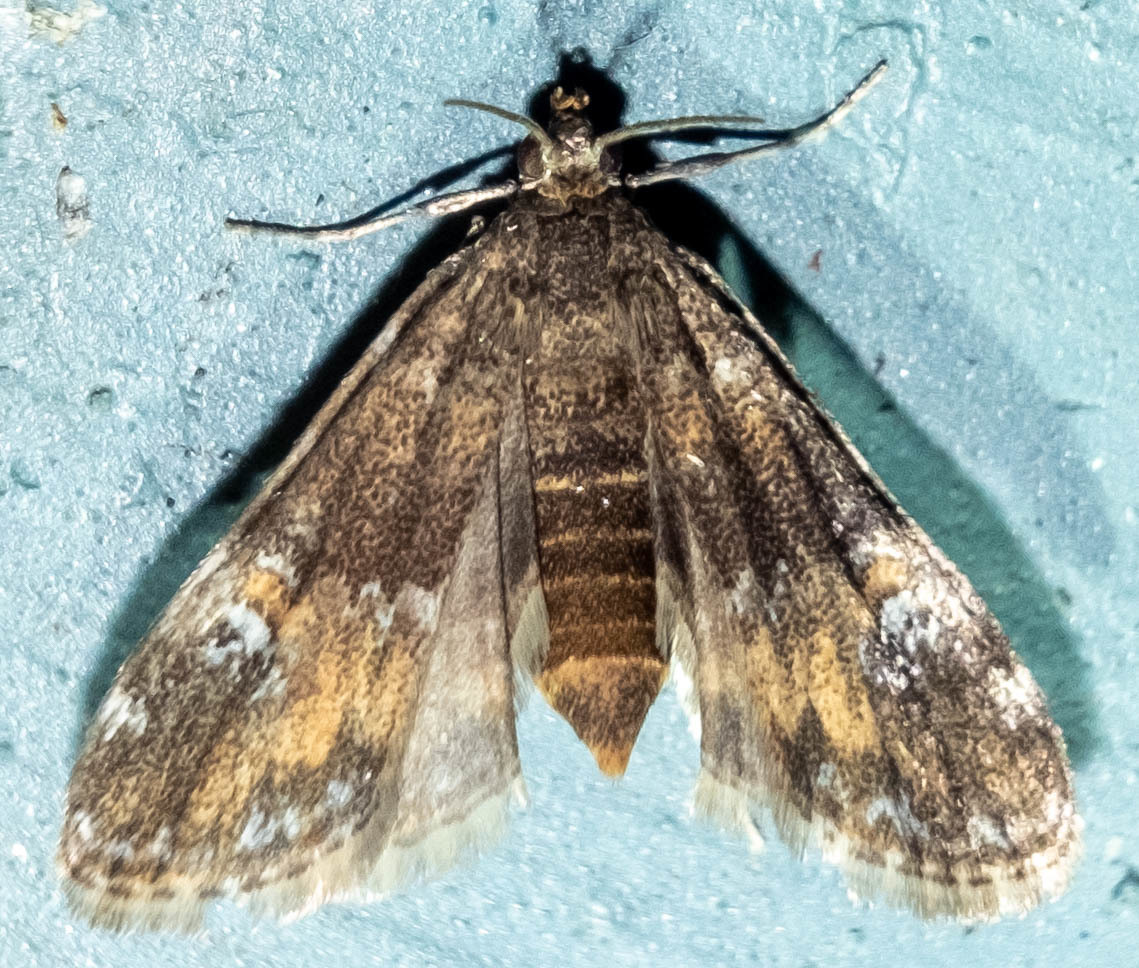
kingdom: Animalia
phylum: Arthropoda
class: Insecta
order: Lepidoptera
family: Crambidae
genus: Elophila
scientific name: Elophila obliteralis
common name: Waterlily leafcutter moth
